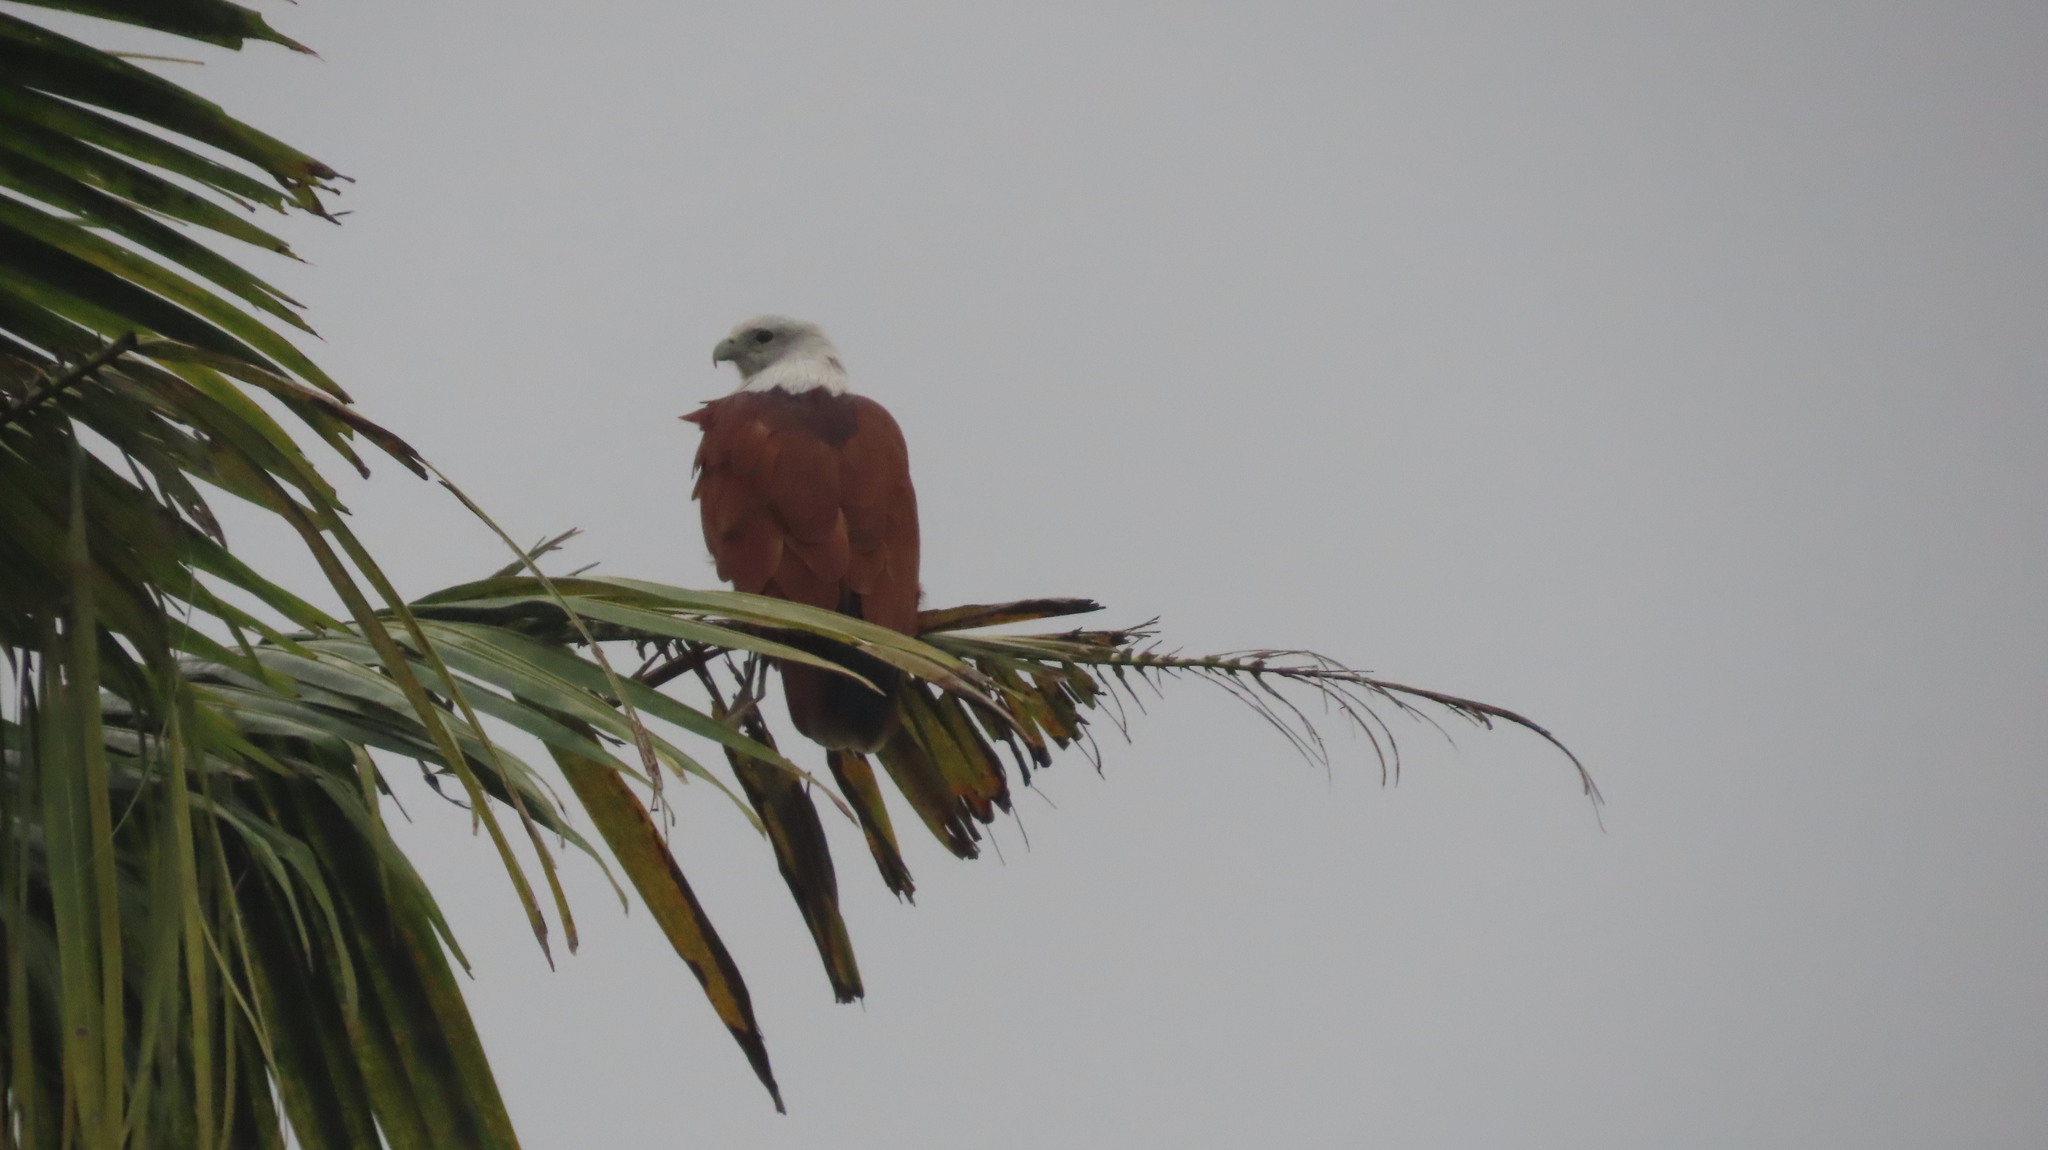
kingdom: Animalia
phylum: Chordata
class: Aves
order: Accipitriformes
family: Accipitridae
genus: Haliastur
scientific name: Haliastur indus
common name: Brahminy kite
